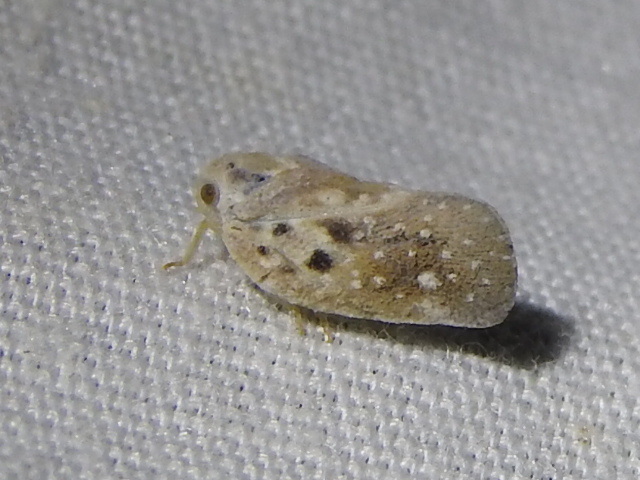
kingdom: Animalia
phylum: Arthropoda
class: Insecta
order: Hemiptera
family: Flatidae
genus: Metcalfa
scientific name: Metcalfa pruinosa
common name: Citrus flatid planthopper
